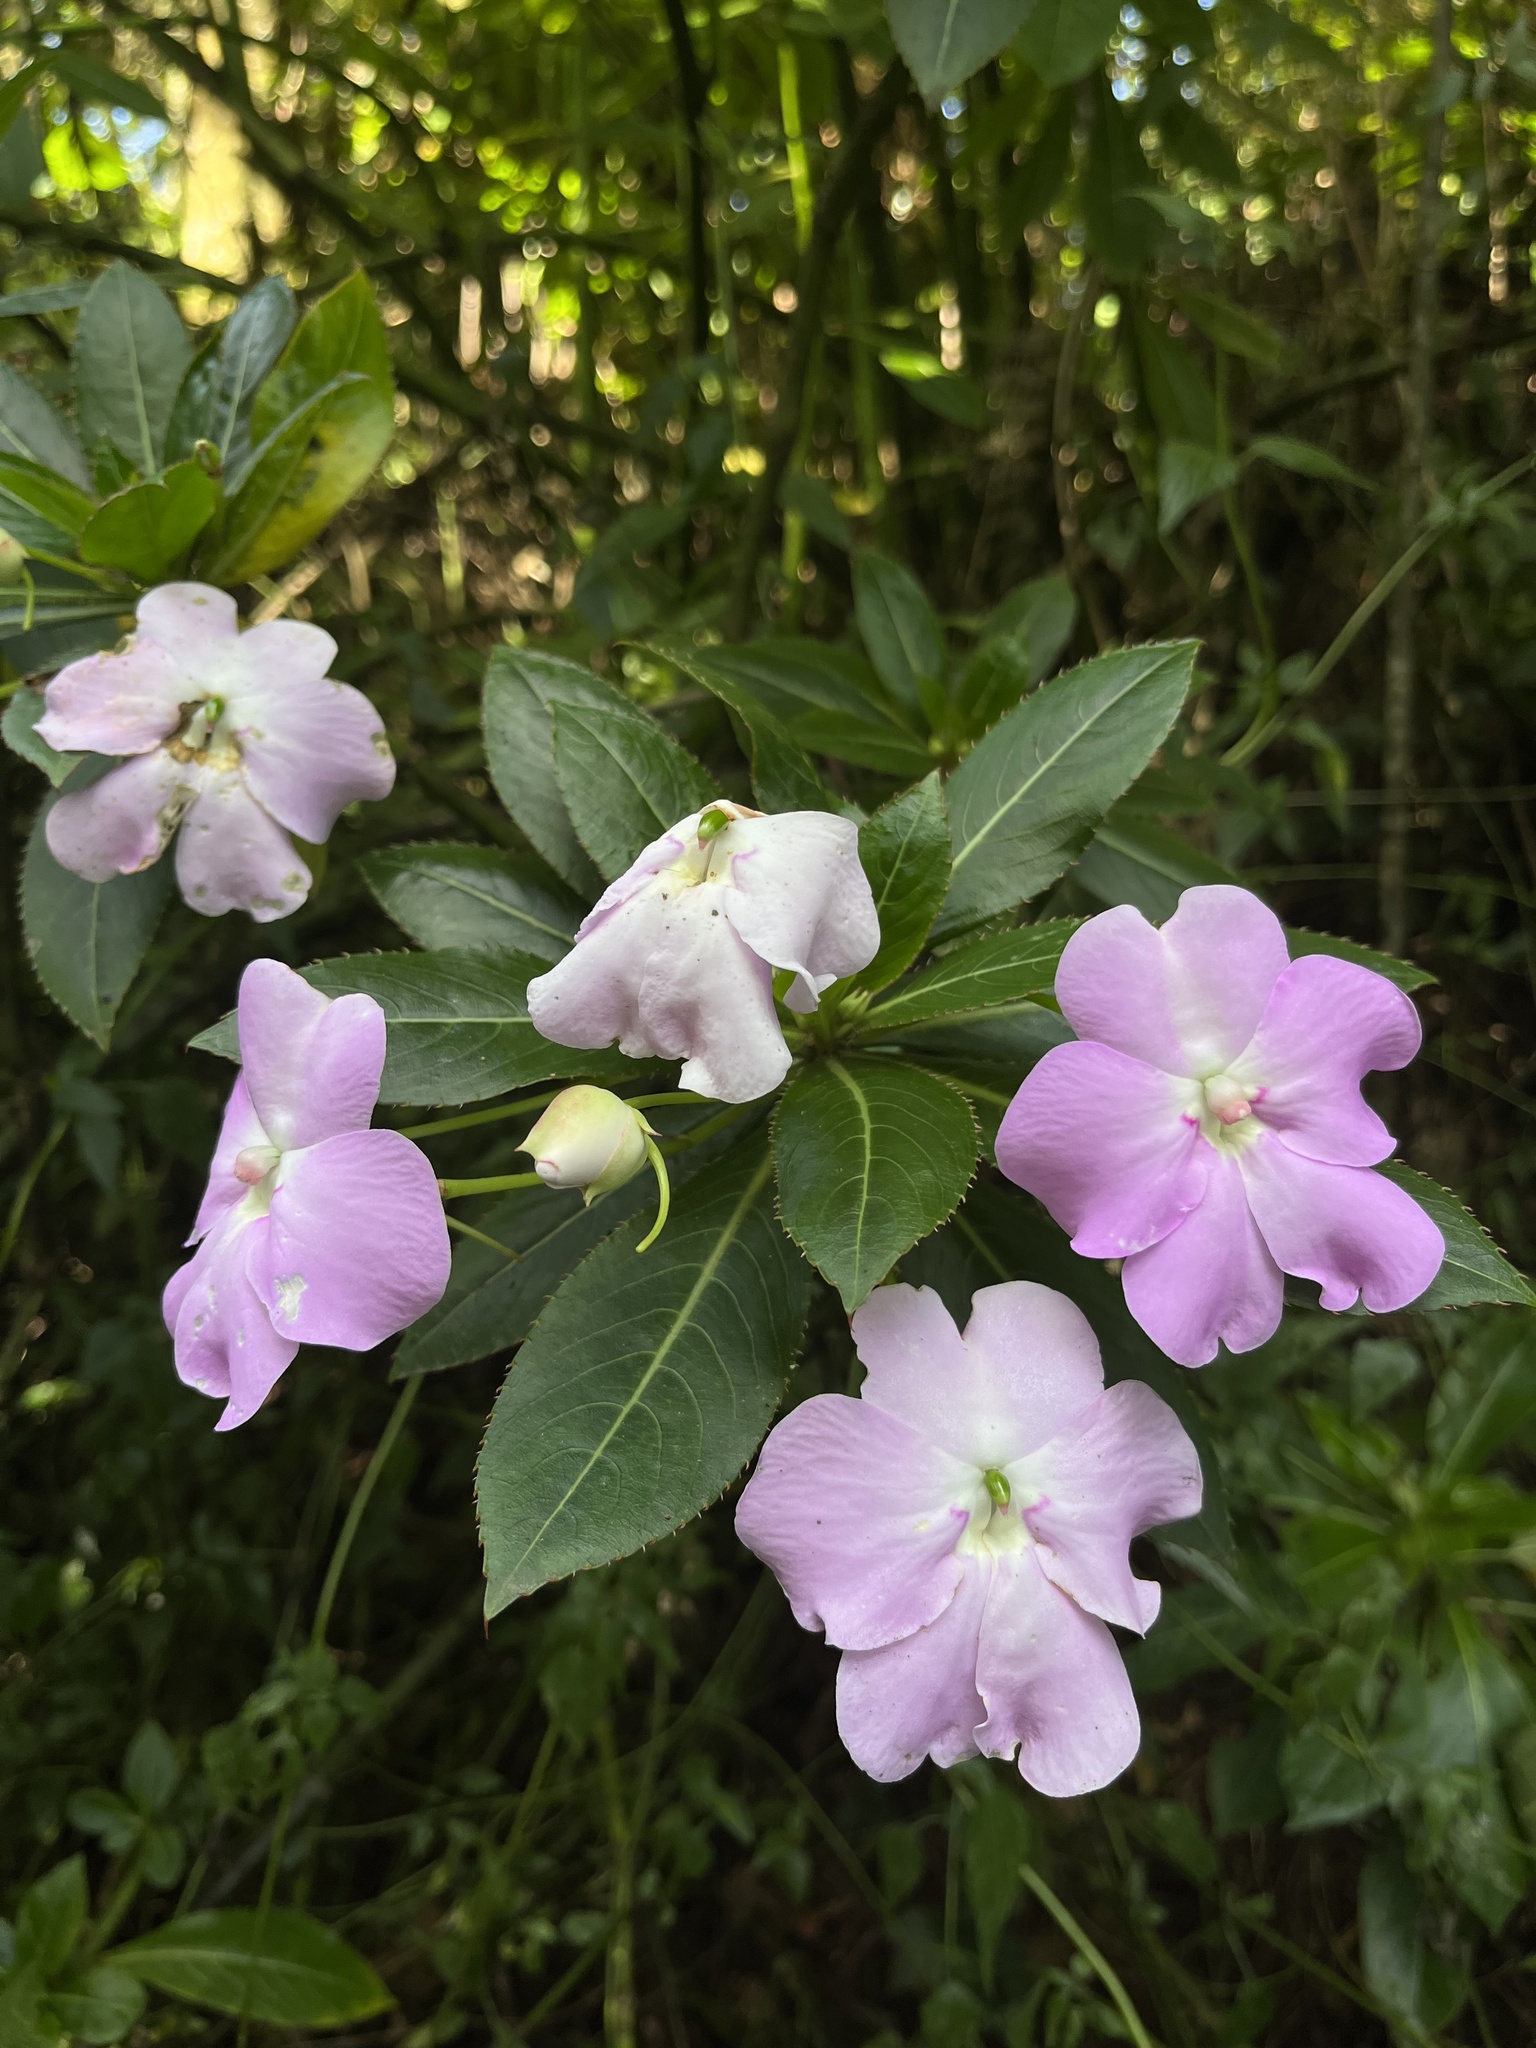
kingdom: Plantae
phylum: Tracheophyta
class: Magnoliopsida
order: Ericales
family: Balsaminaceae
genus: Impatiens
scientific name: Impatiens sodenii
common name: Oliver's touch-me-not
